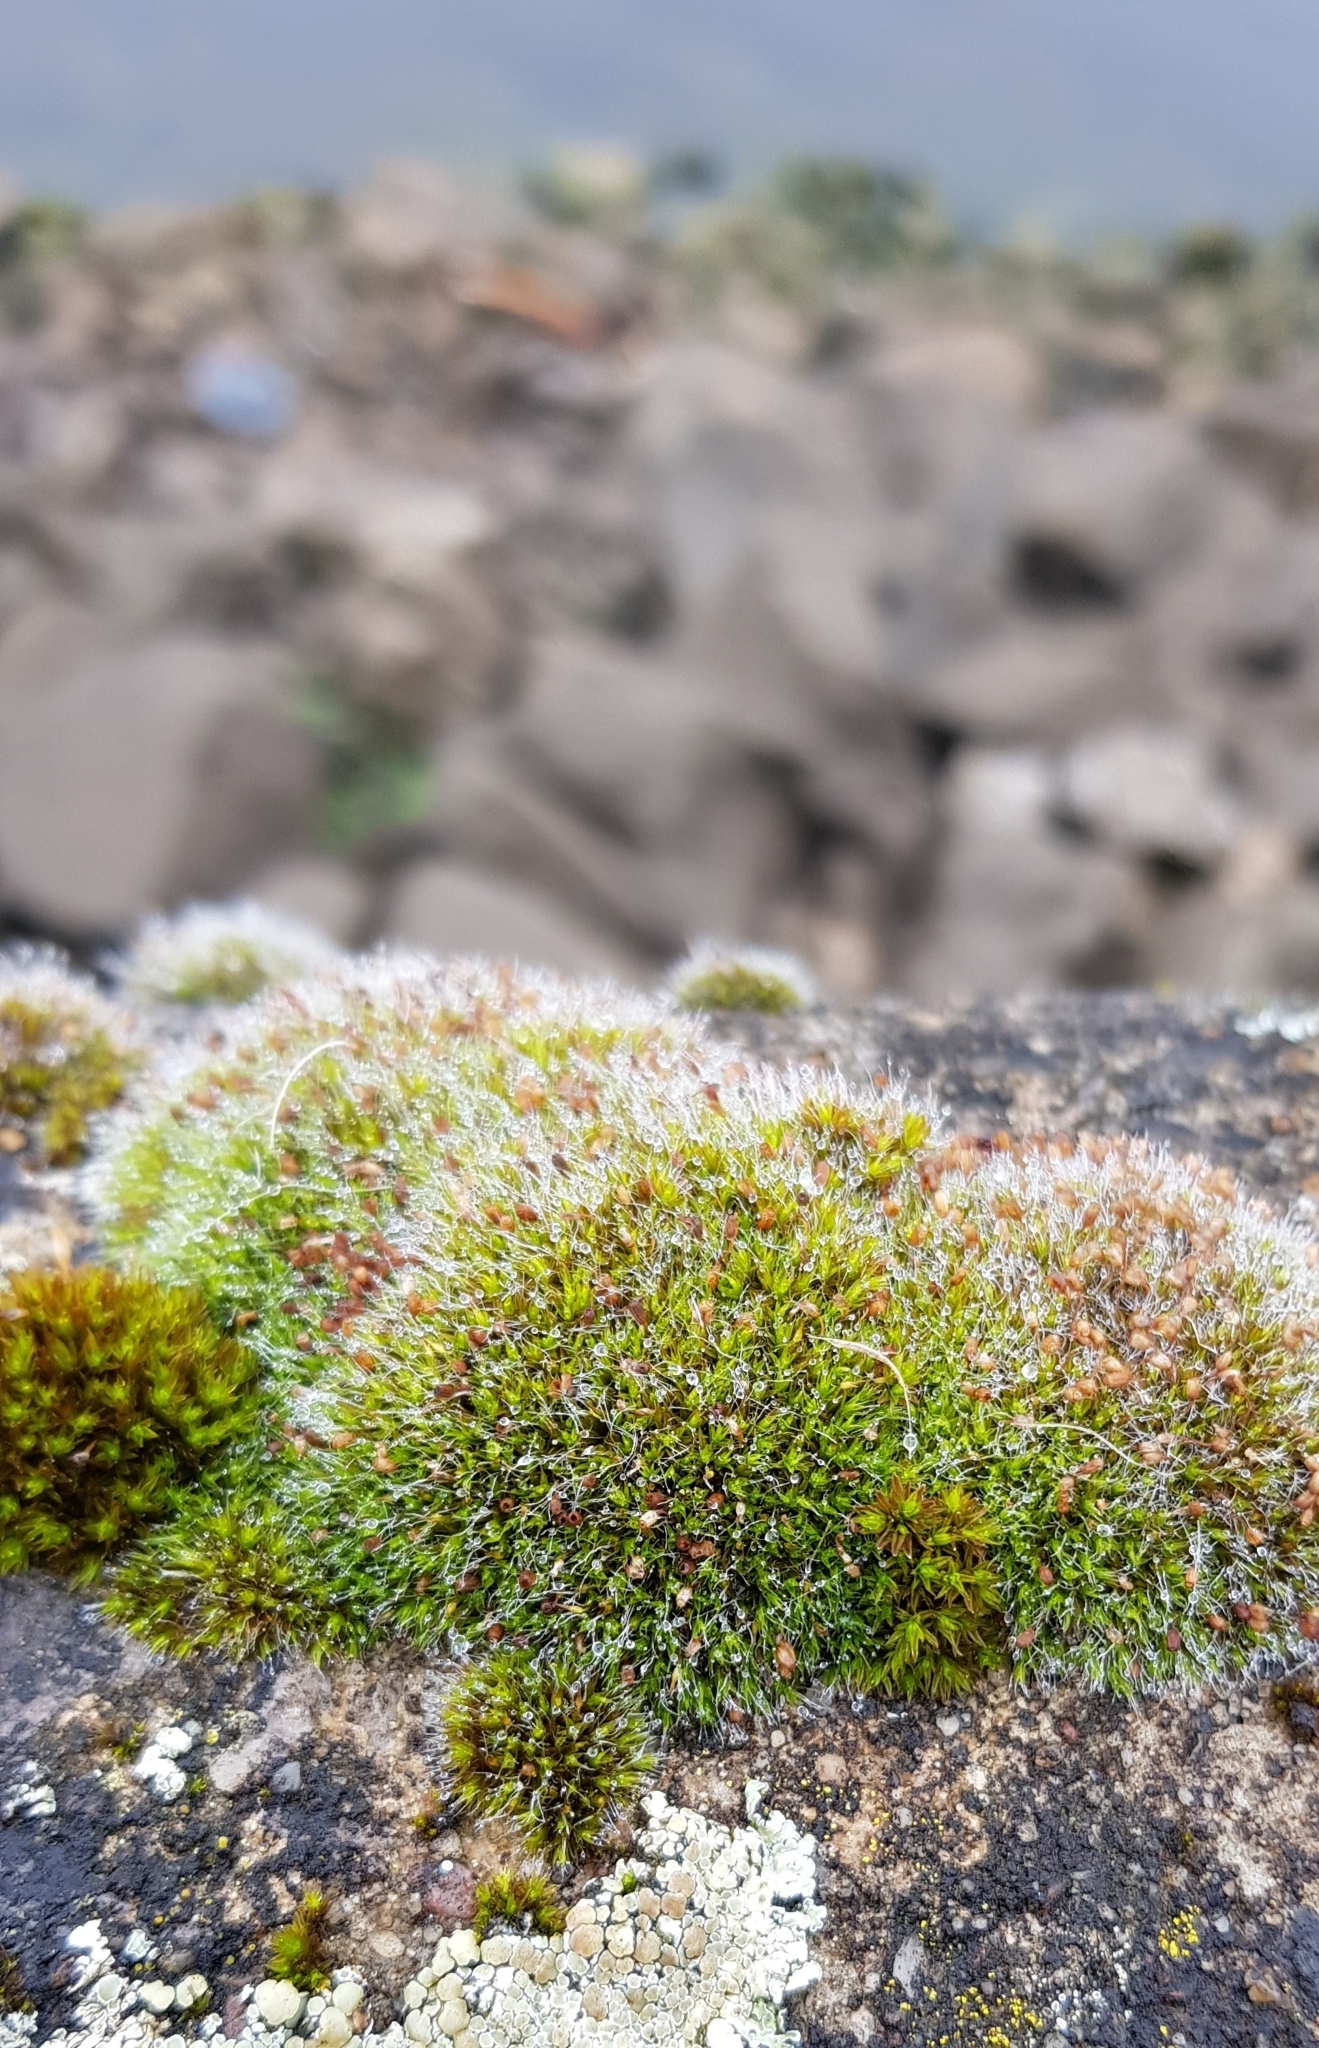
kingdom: Plantae
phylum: Bryophyta
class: Bryopsida
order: Grimmiales
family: Grimmiaceae
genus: Grimmia
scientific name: Grimmia pulvinata
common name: Grey-cushioned grimmia
